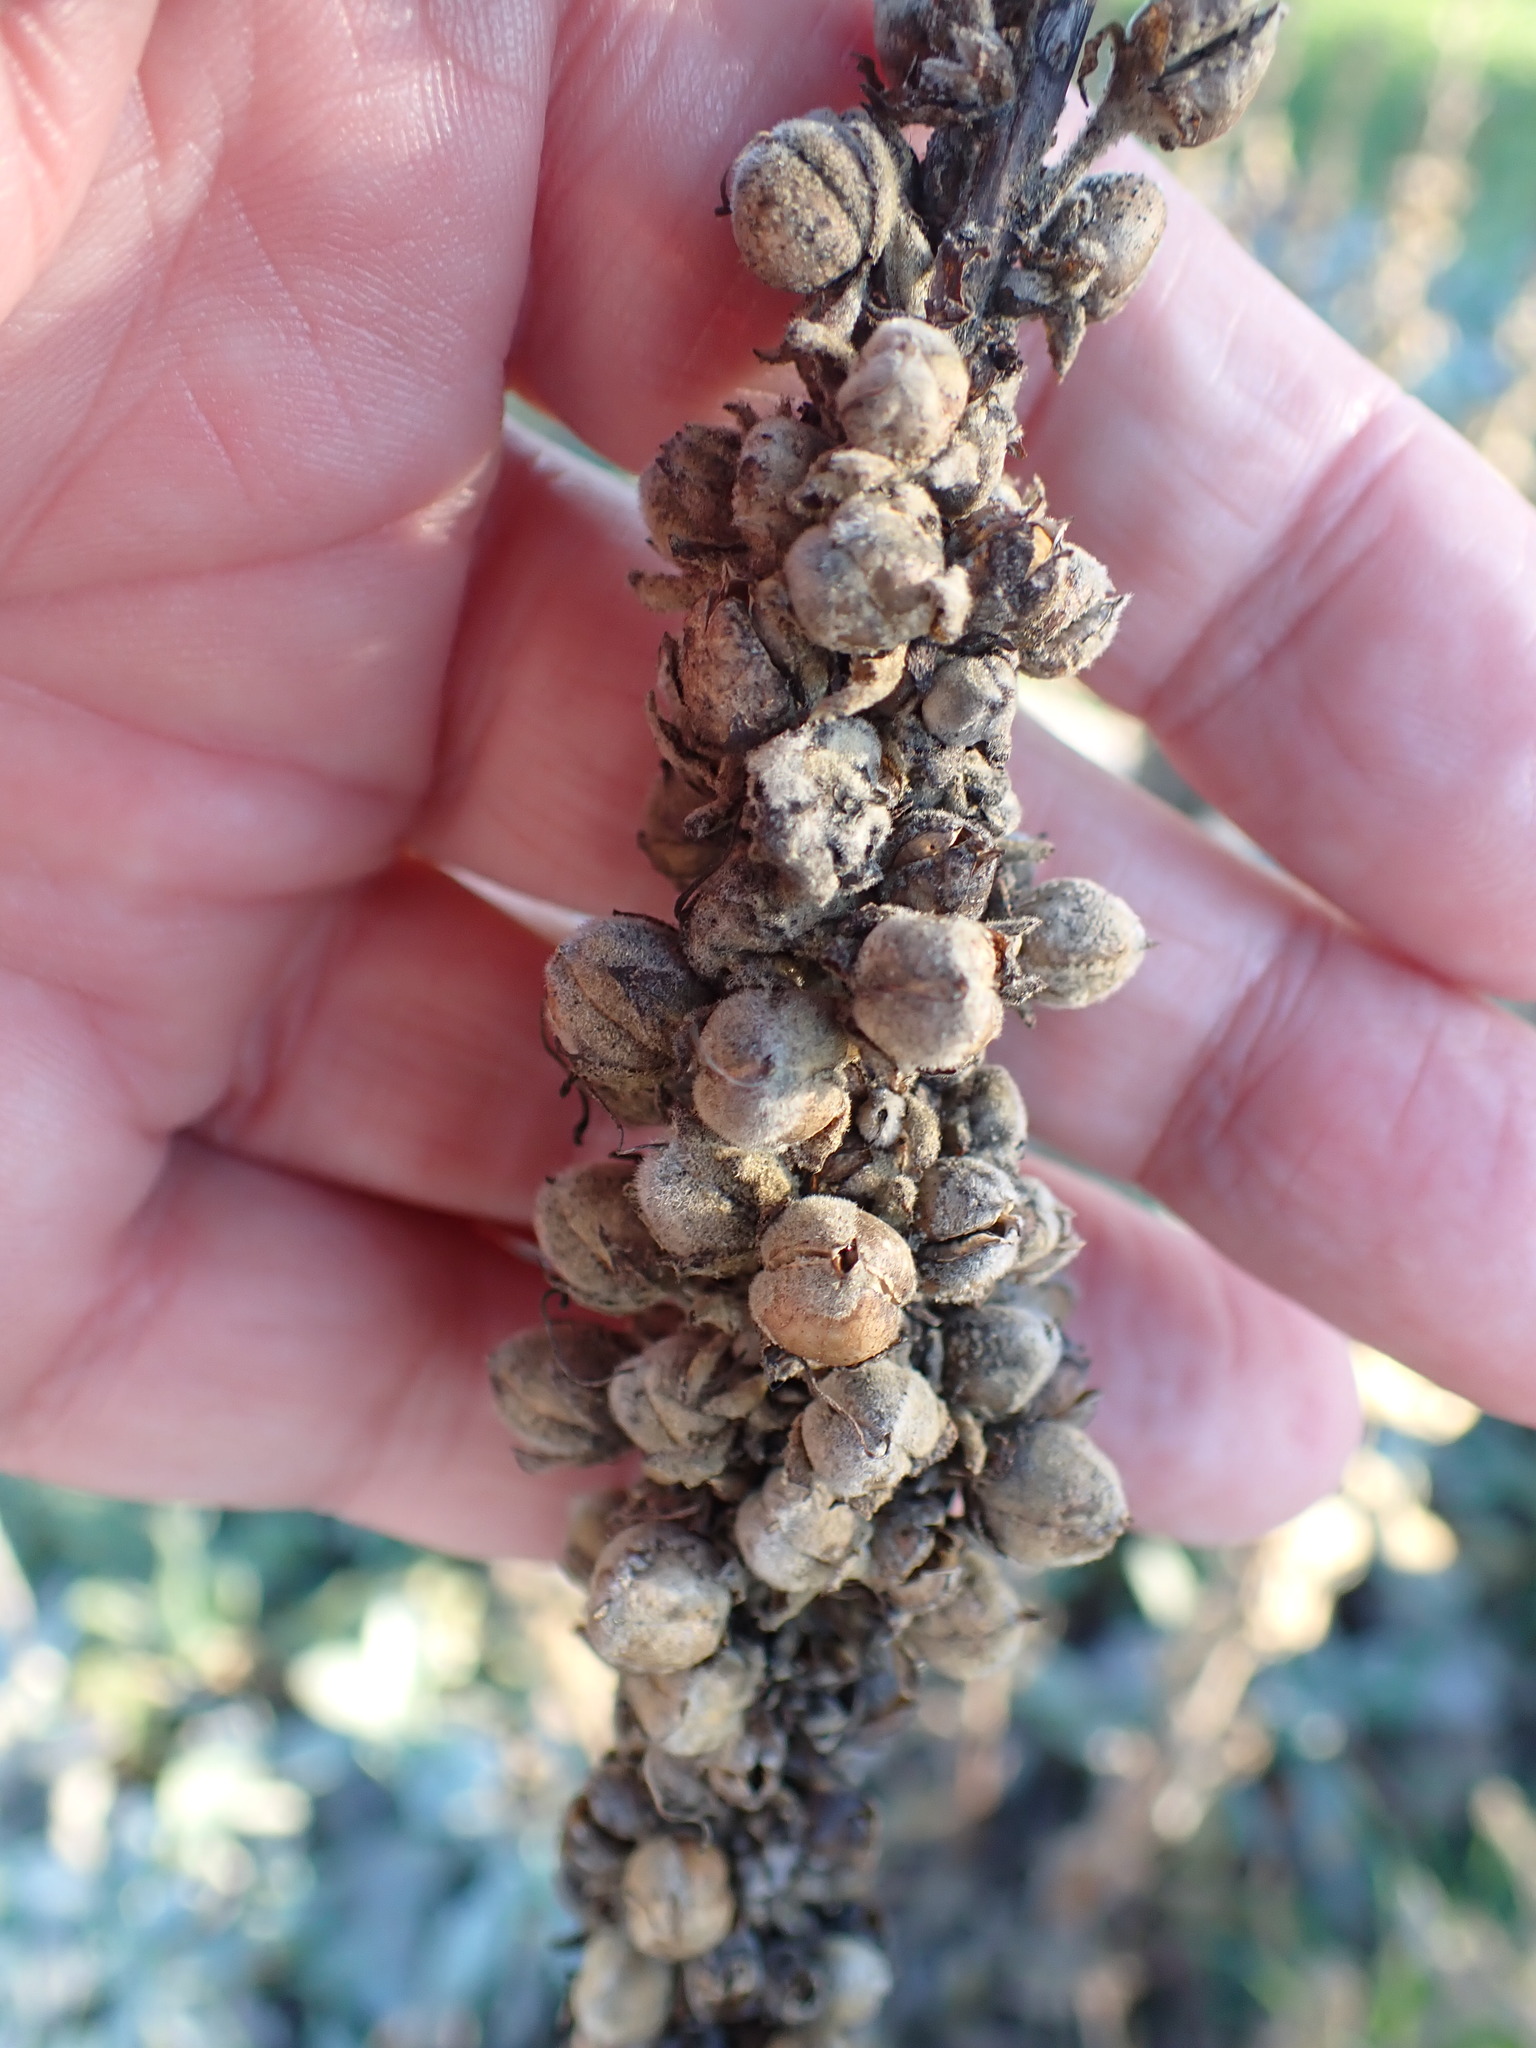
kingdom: Plantae
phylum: Tracheophyta
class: Magnoliopsida
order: Lamiales
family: Scrophulariaceae
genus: Verbascum
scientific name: Verbascum thapsus
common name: Common mullein
